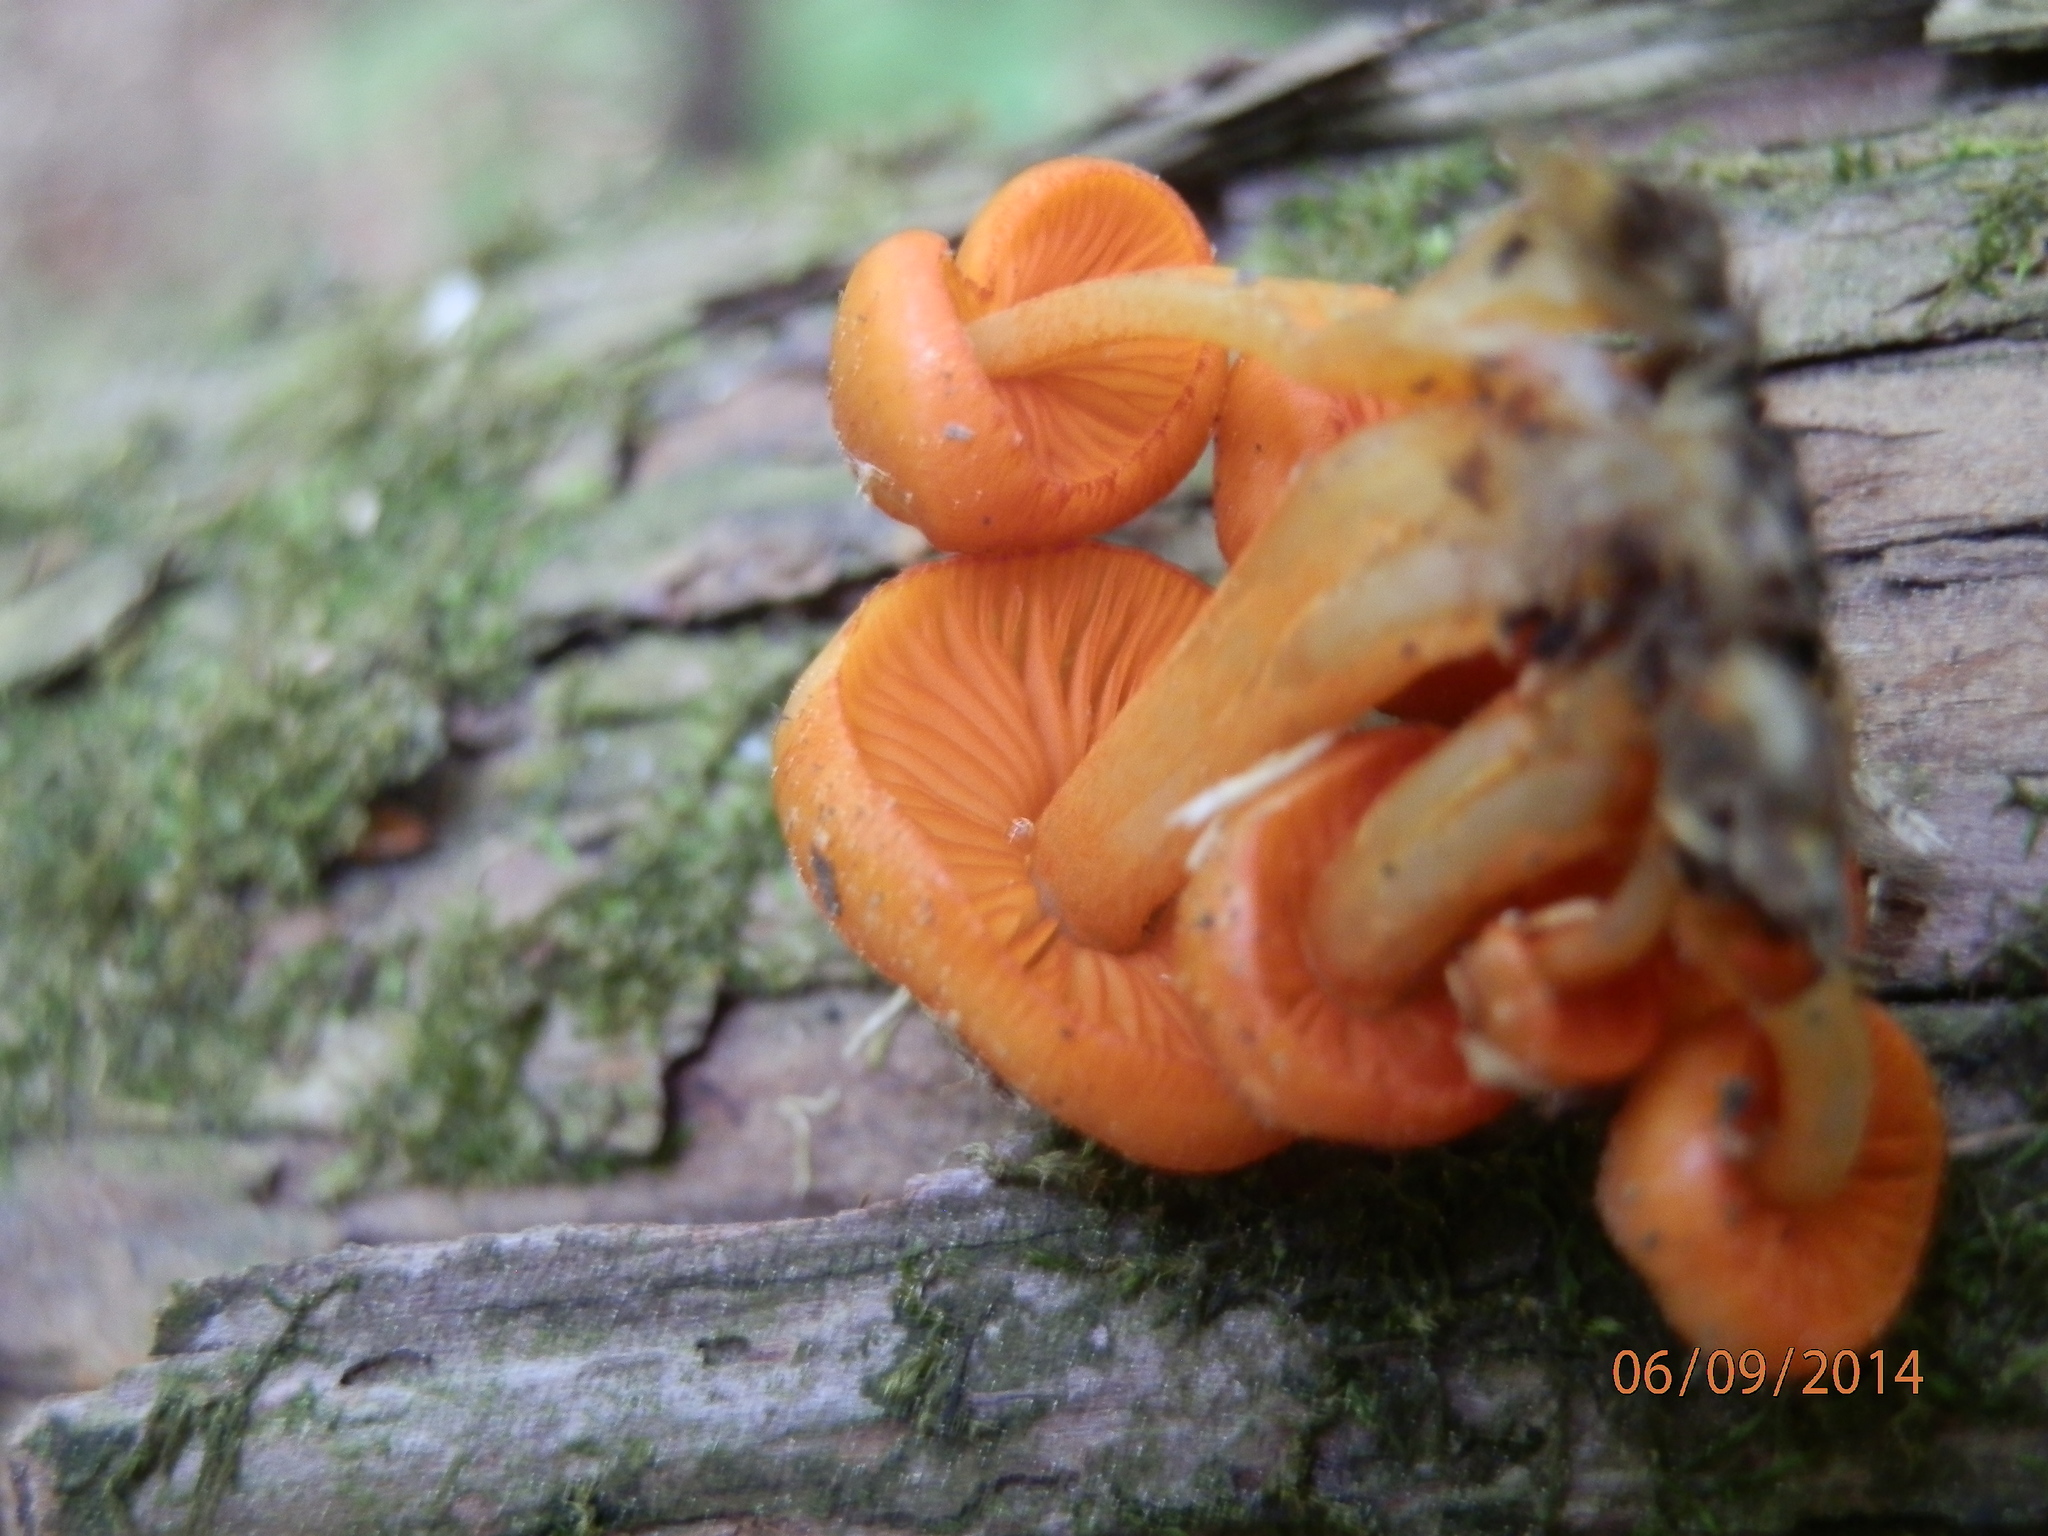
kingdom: Fungi
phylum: Basidiomycota
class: Agaricomycetes
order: Agaricales
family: Mycenaceae
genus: Mycena
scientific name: Mycena leaiana
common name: Orange mycena
